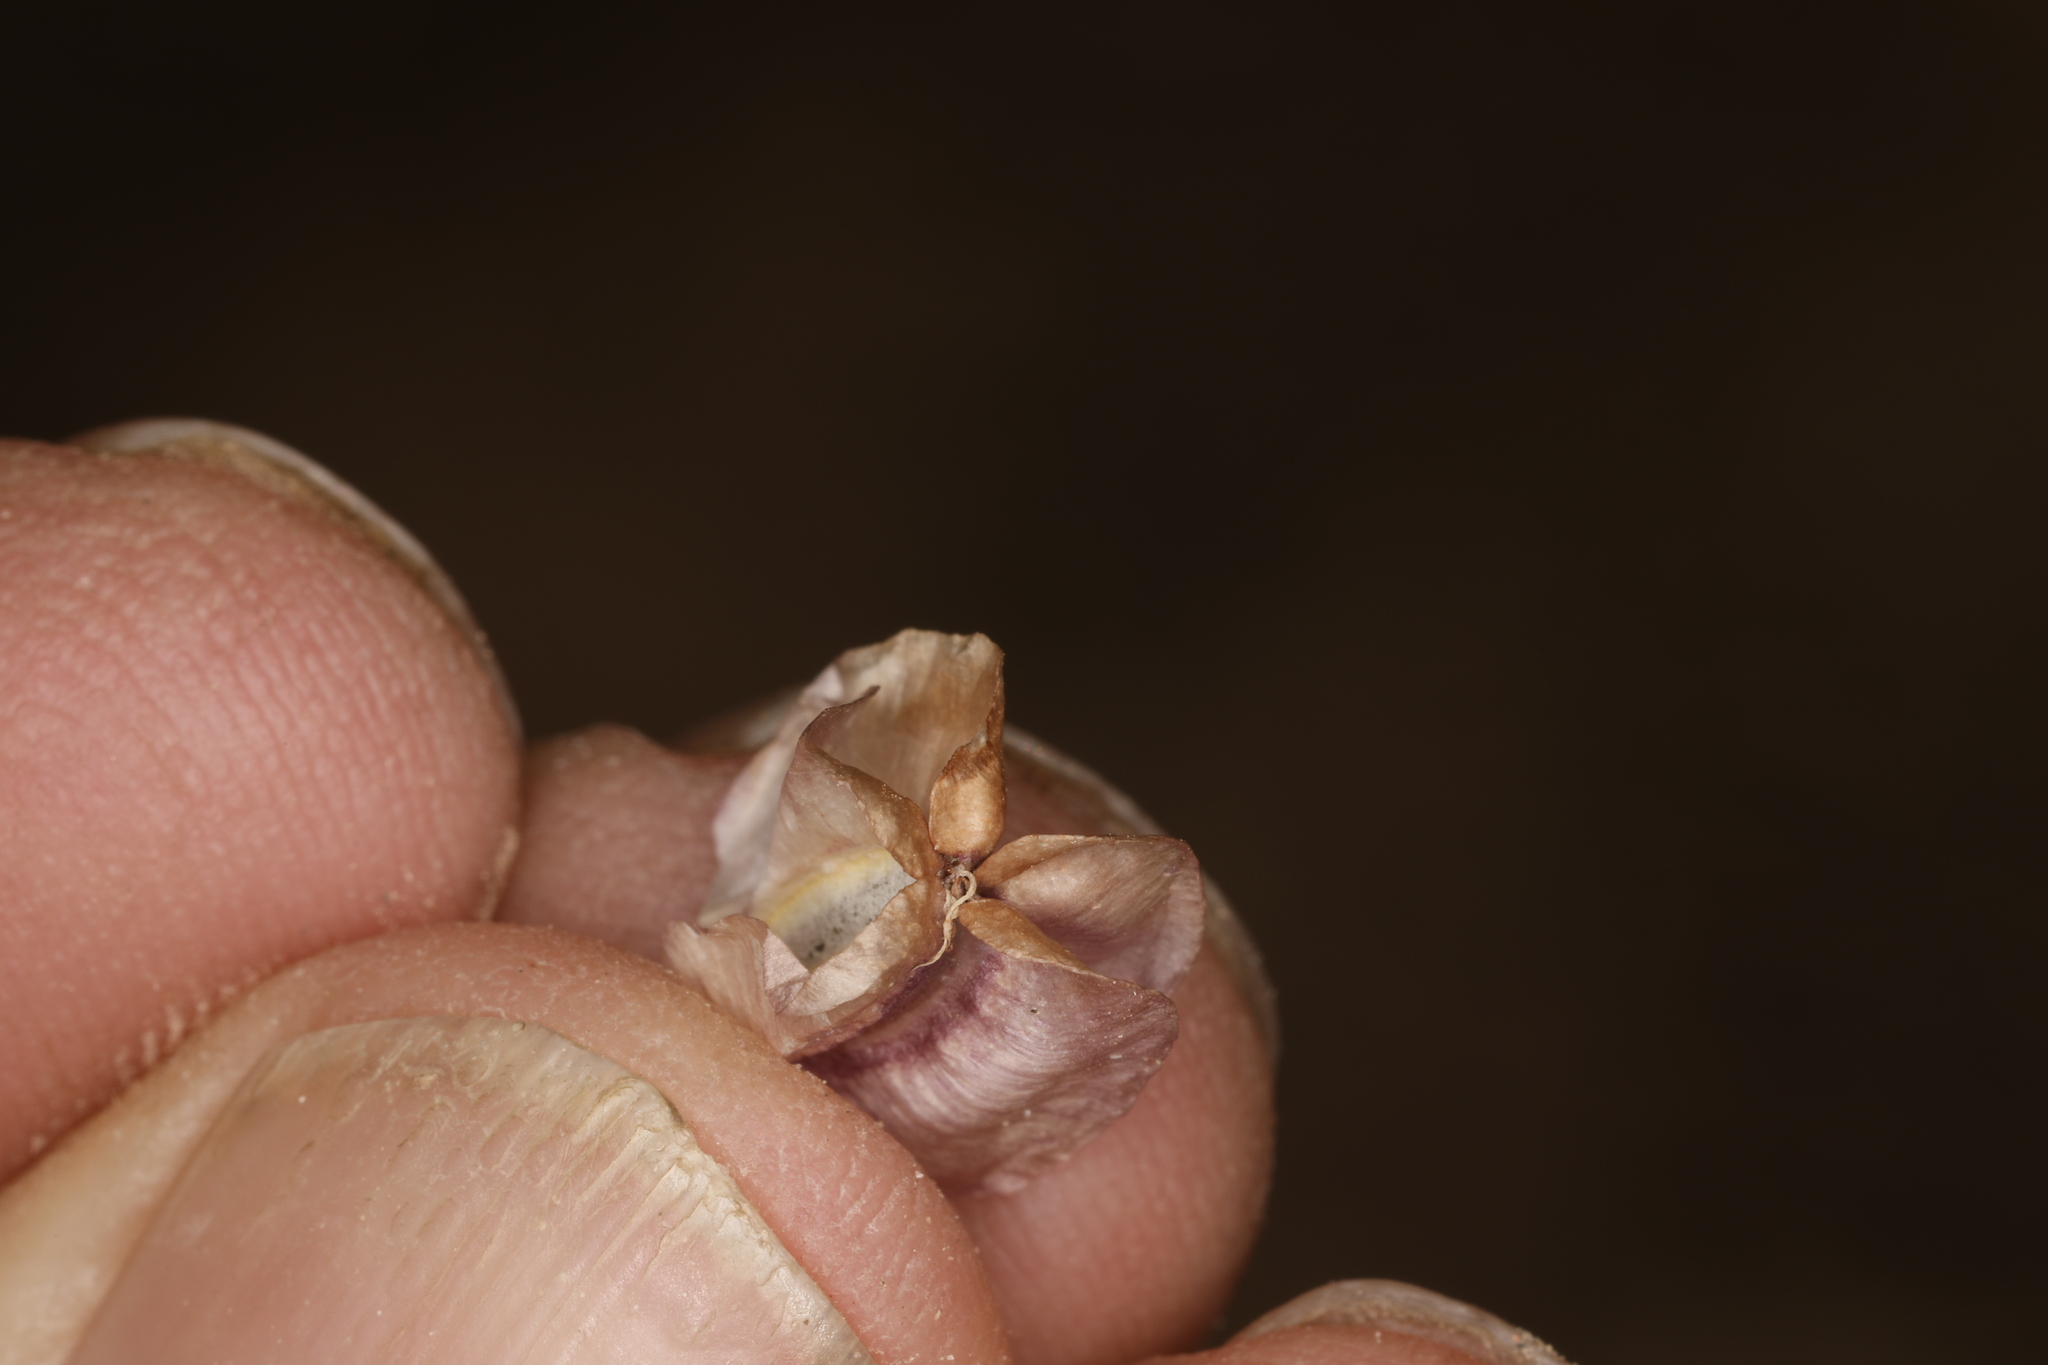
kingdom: Plantae
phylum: Tracheophyta
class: Magnoliopsida
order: Apiales
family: Apiaceae
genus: Vesper
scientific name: Vesper purpurascens
